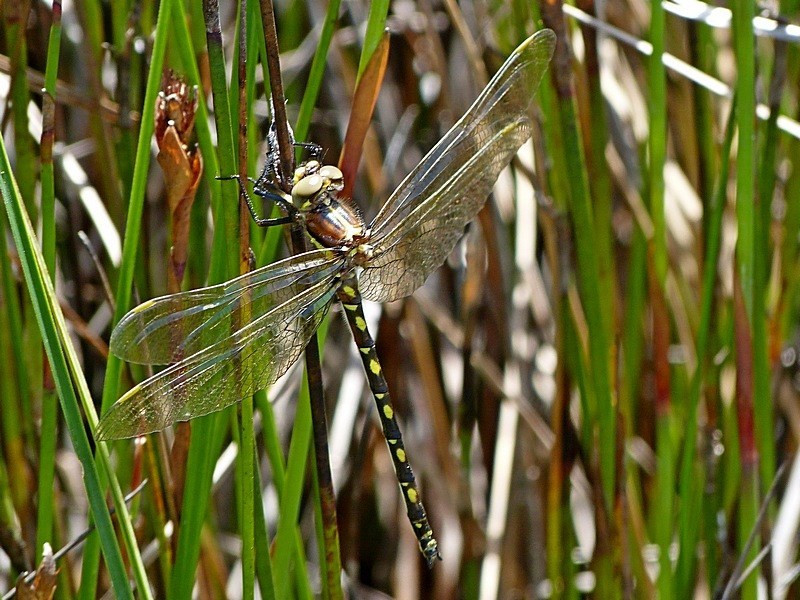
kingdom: Animalia
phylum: Arthropoda
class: Insecta
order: Odonata
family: Synthemistidae
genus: Synthemis
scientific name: Synthemis eustalacta
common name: Swamp tigertail
